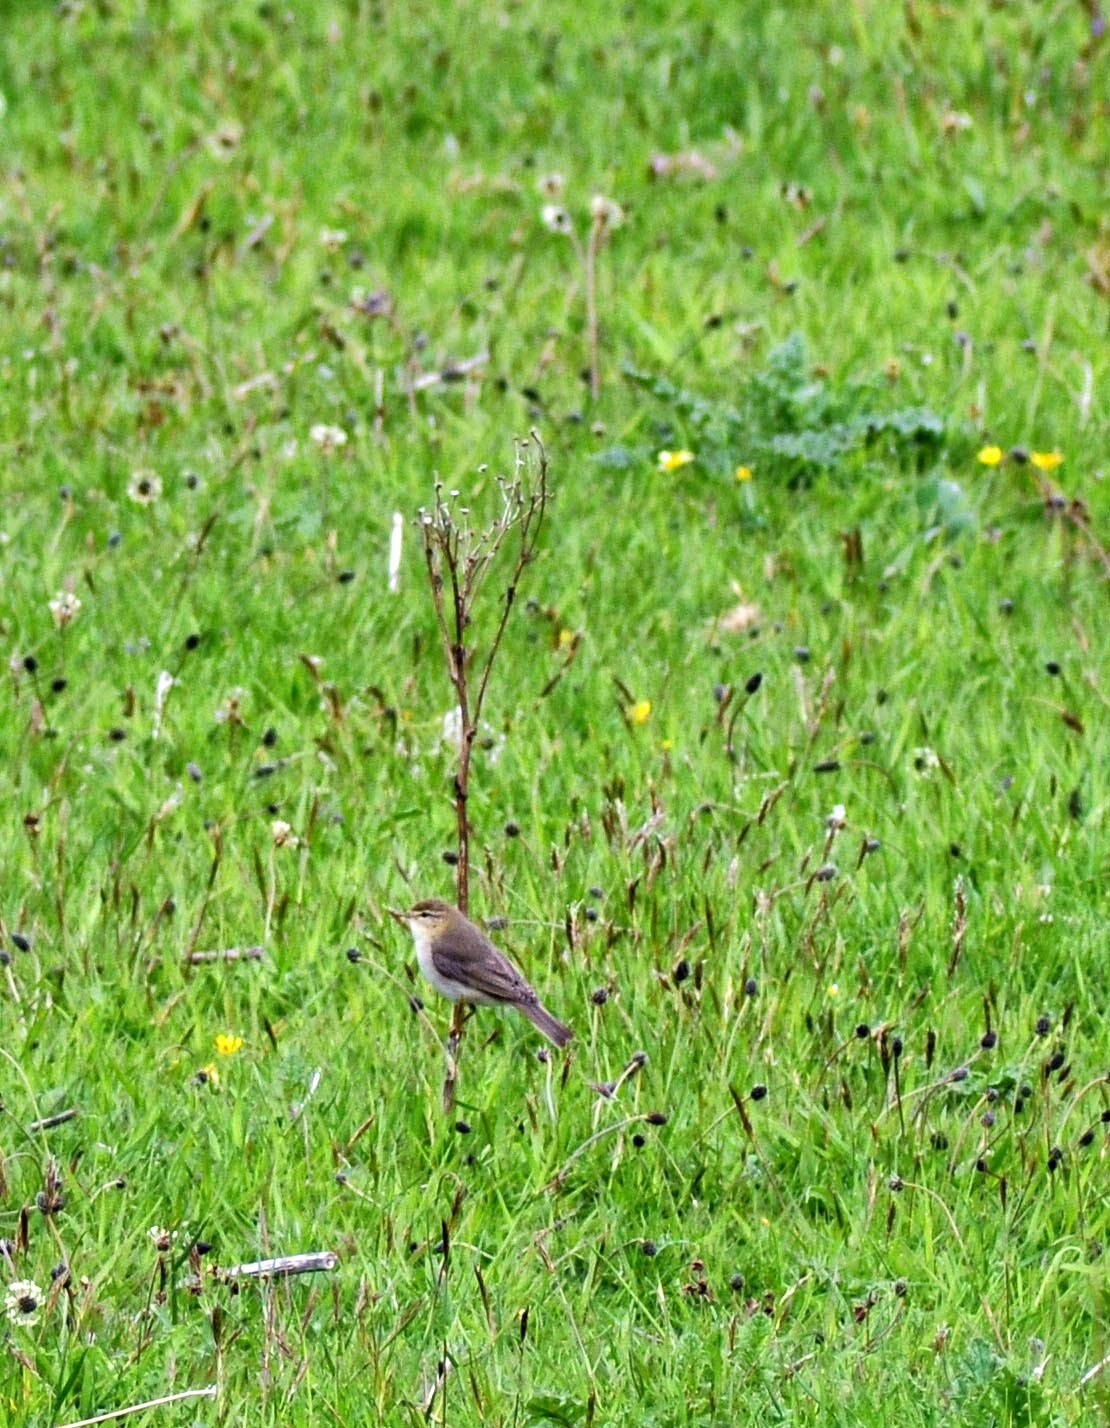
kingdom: Animalia
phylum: Chordata
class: Aves
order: Passeriformes
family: Phylloscopidae
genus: Phylloscopus
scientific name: Phylloscopus trochilus
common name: Willow warbler
